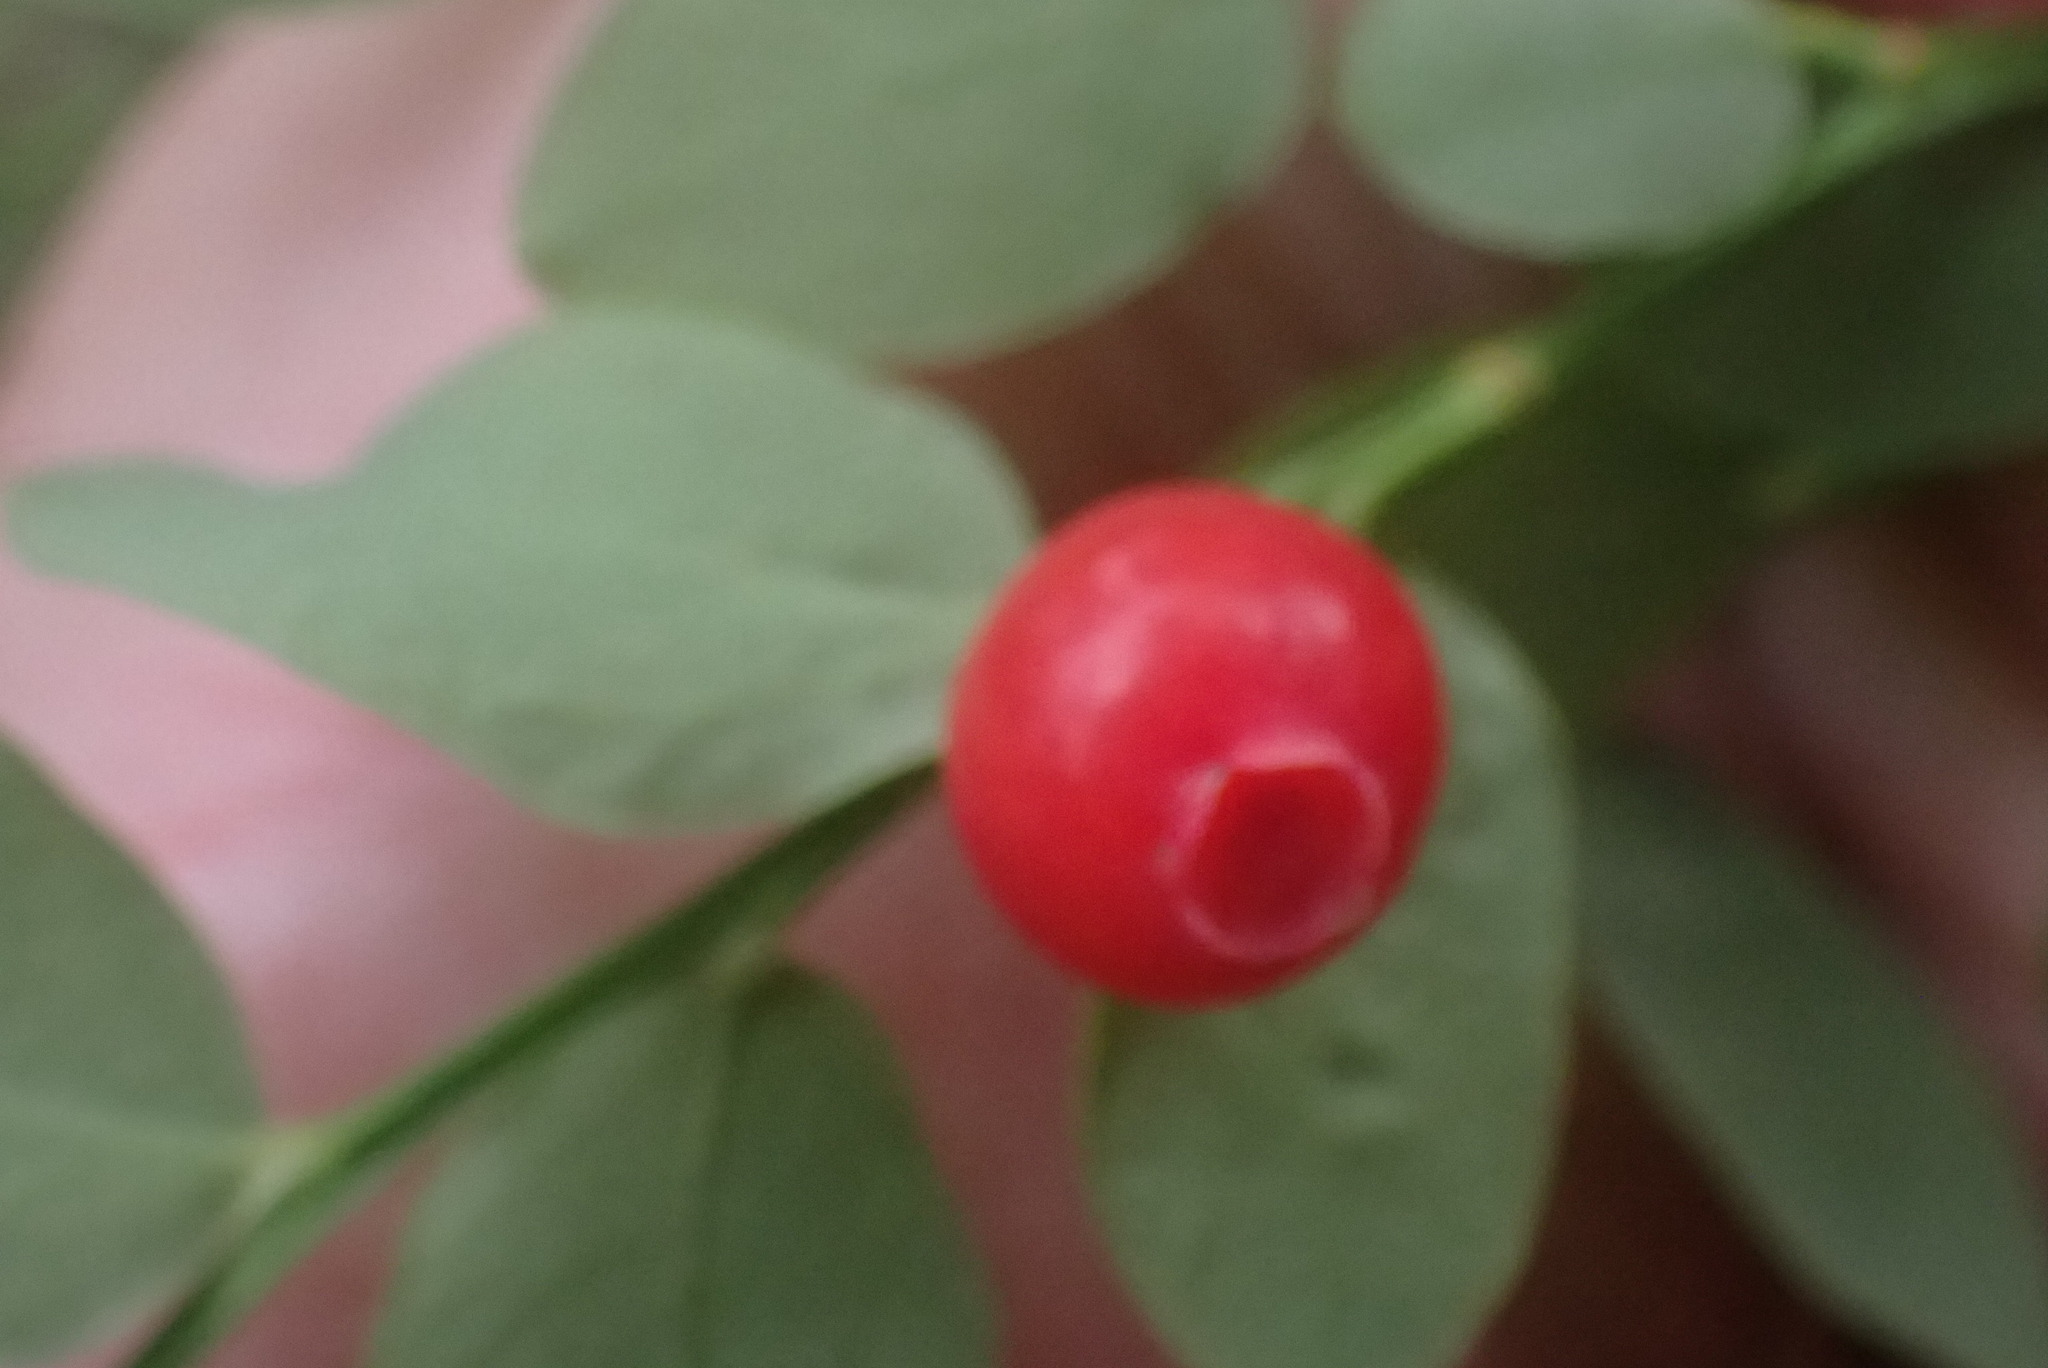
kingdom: Plantae
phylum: Tracheophyta
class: Magnoliopsida
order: Ericales
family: Ericaceae
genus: Vaccinium
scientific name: Vaccinium parvifolium
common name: Red-huckleberry
